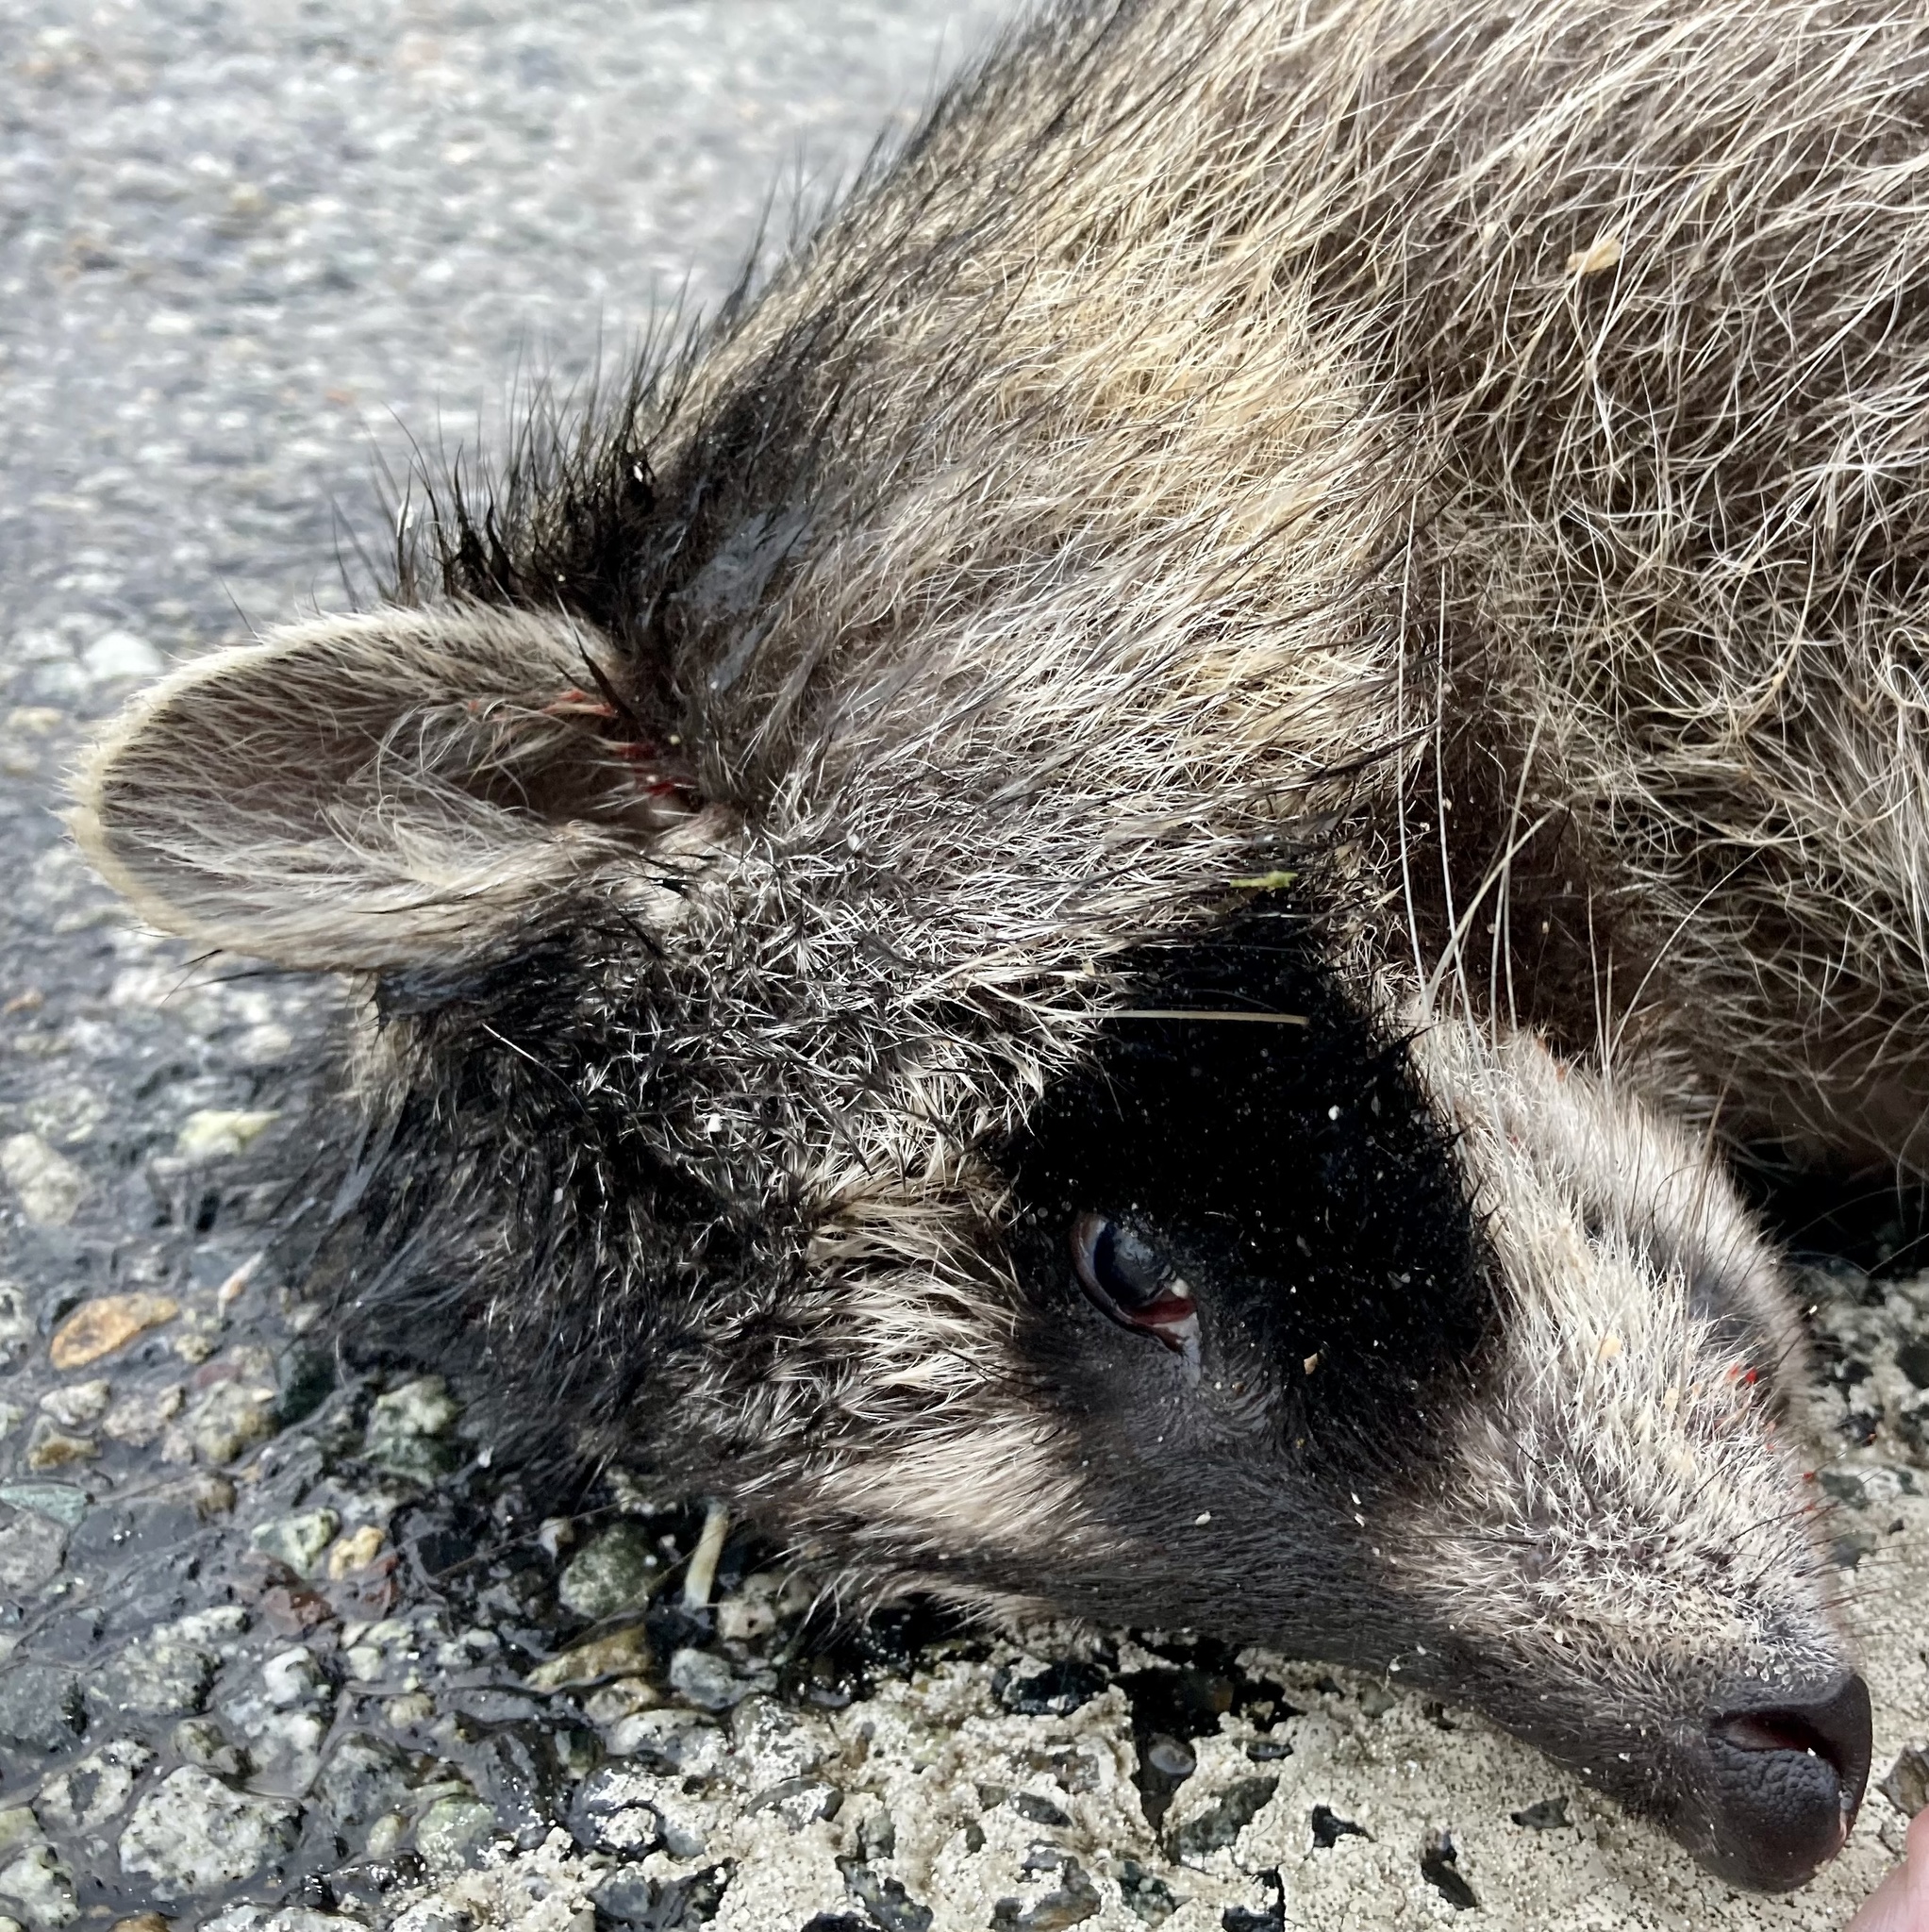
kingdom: Animalia
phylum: Chordata
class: Mammalia
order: Carnivora
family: Procyonidae
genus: Procyon
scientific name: Procyon lotor
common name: Raccoon
